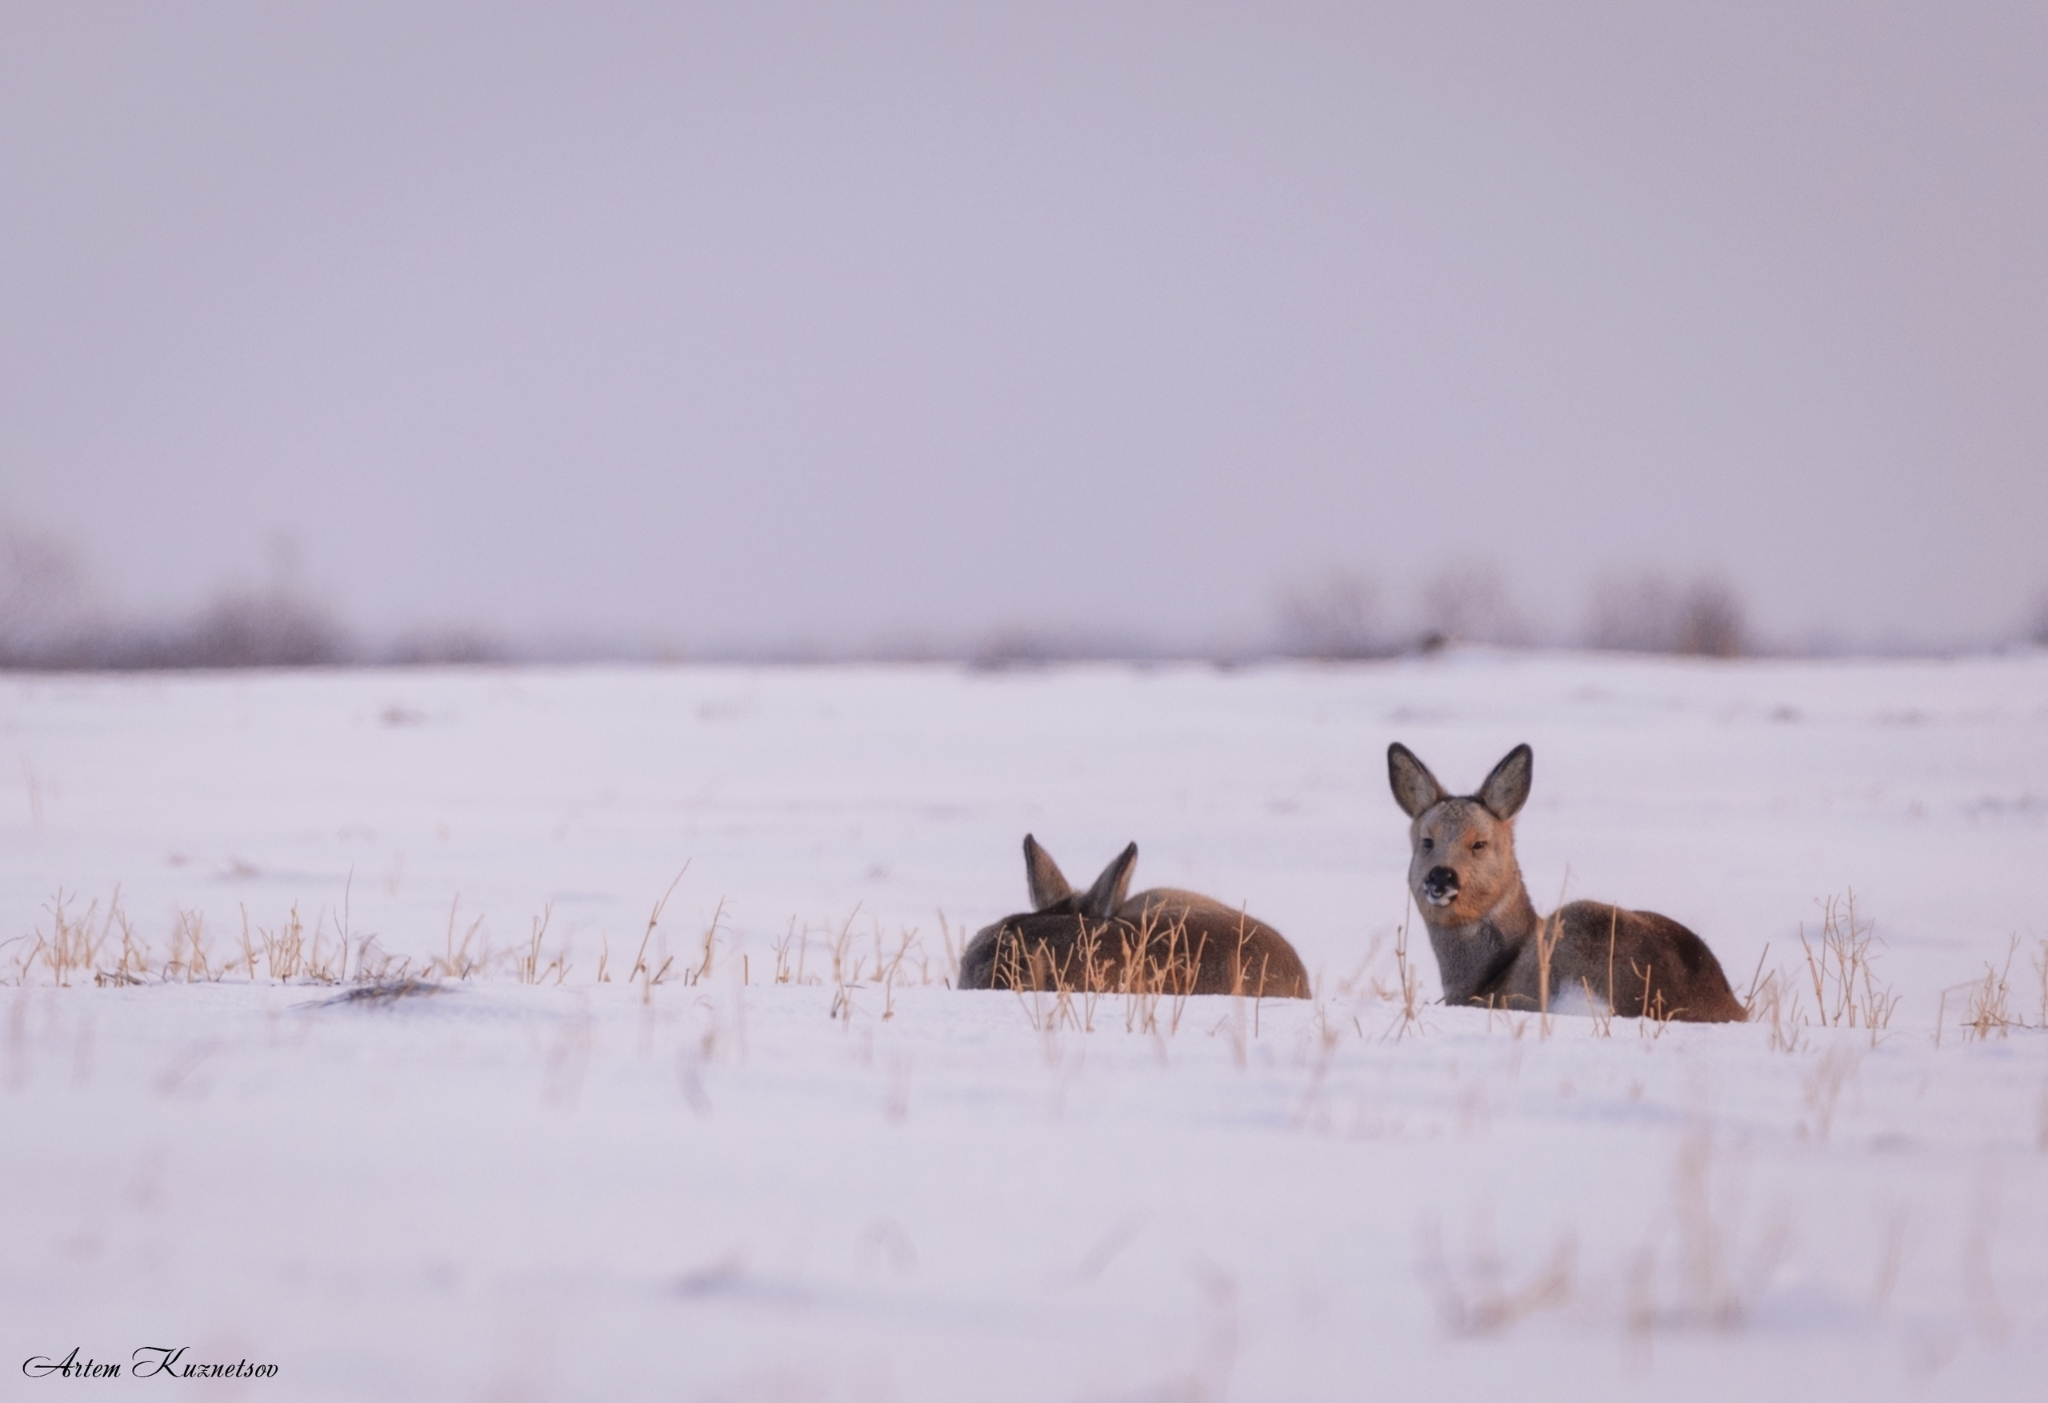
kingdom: Animalia
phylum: Chordata
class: Mammalia
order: Artiodactyla
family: Cervidae
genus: Capreolus
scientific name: Capreolus pygargus
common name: Siberian roe
